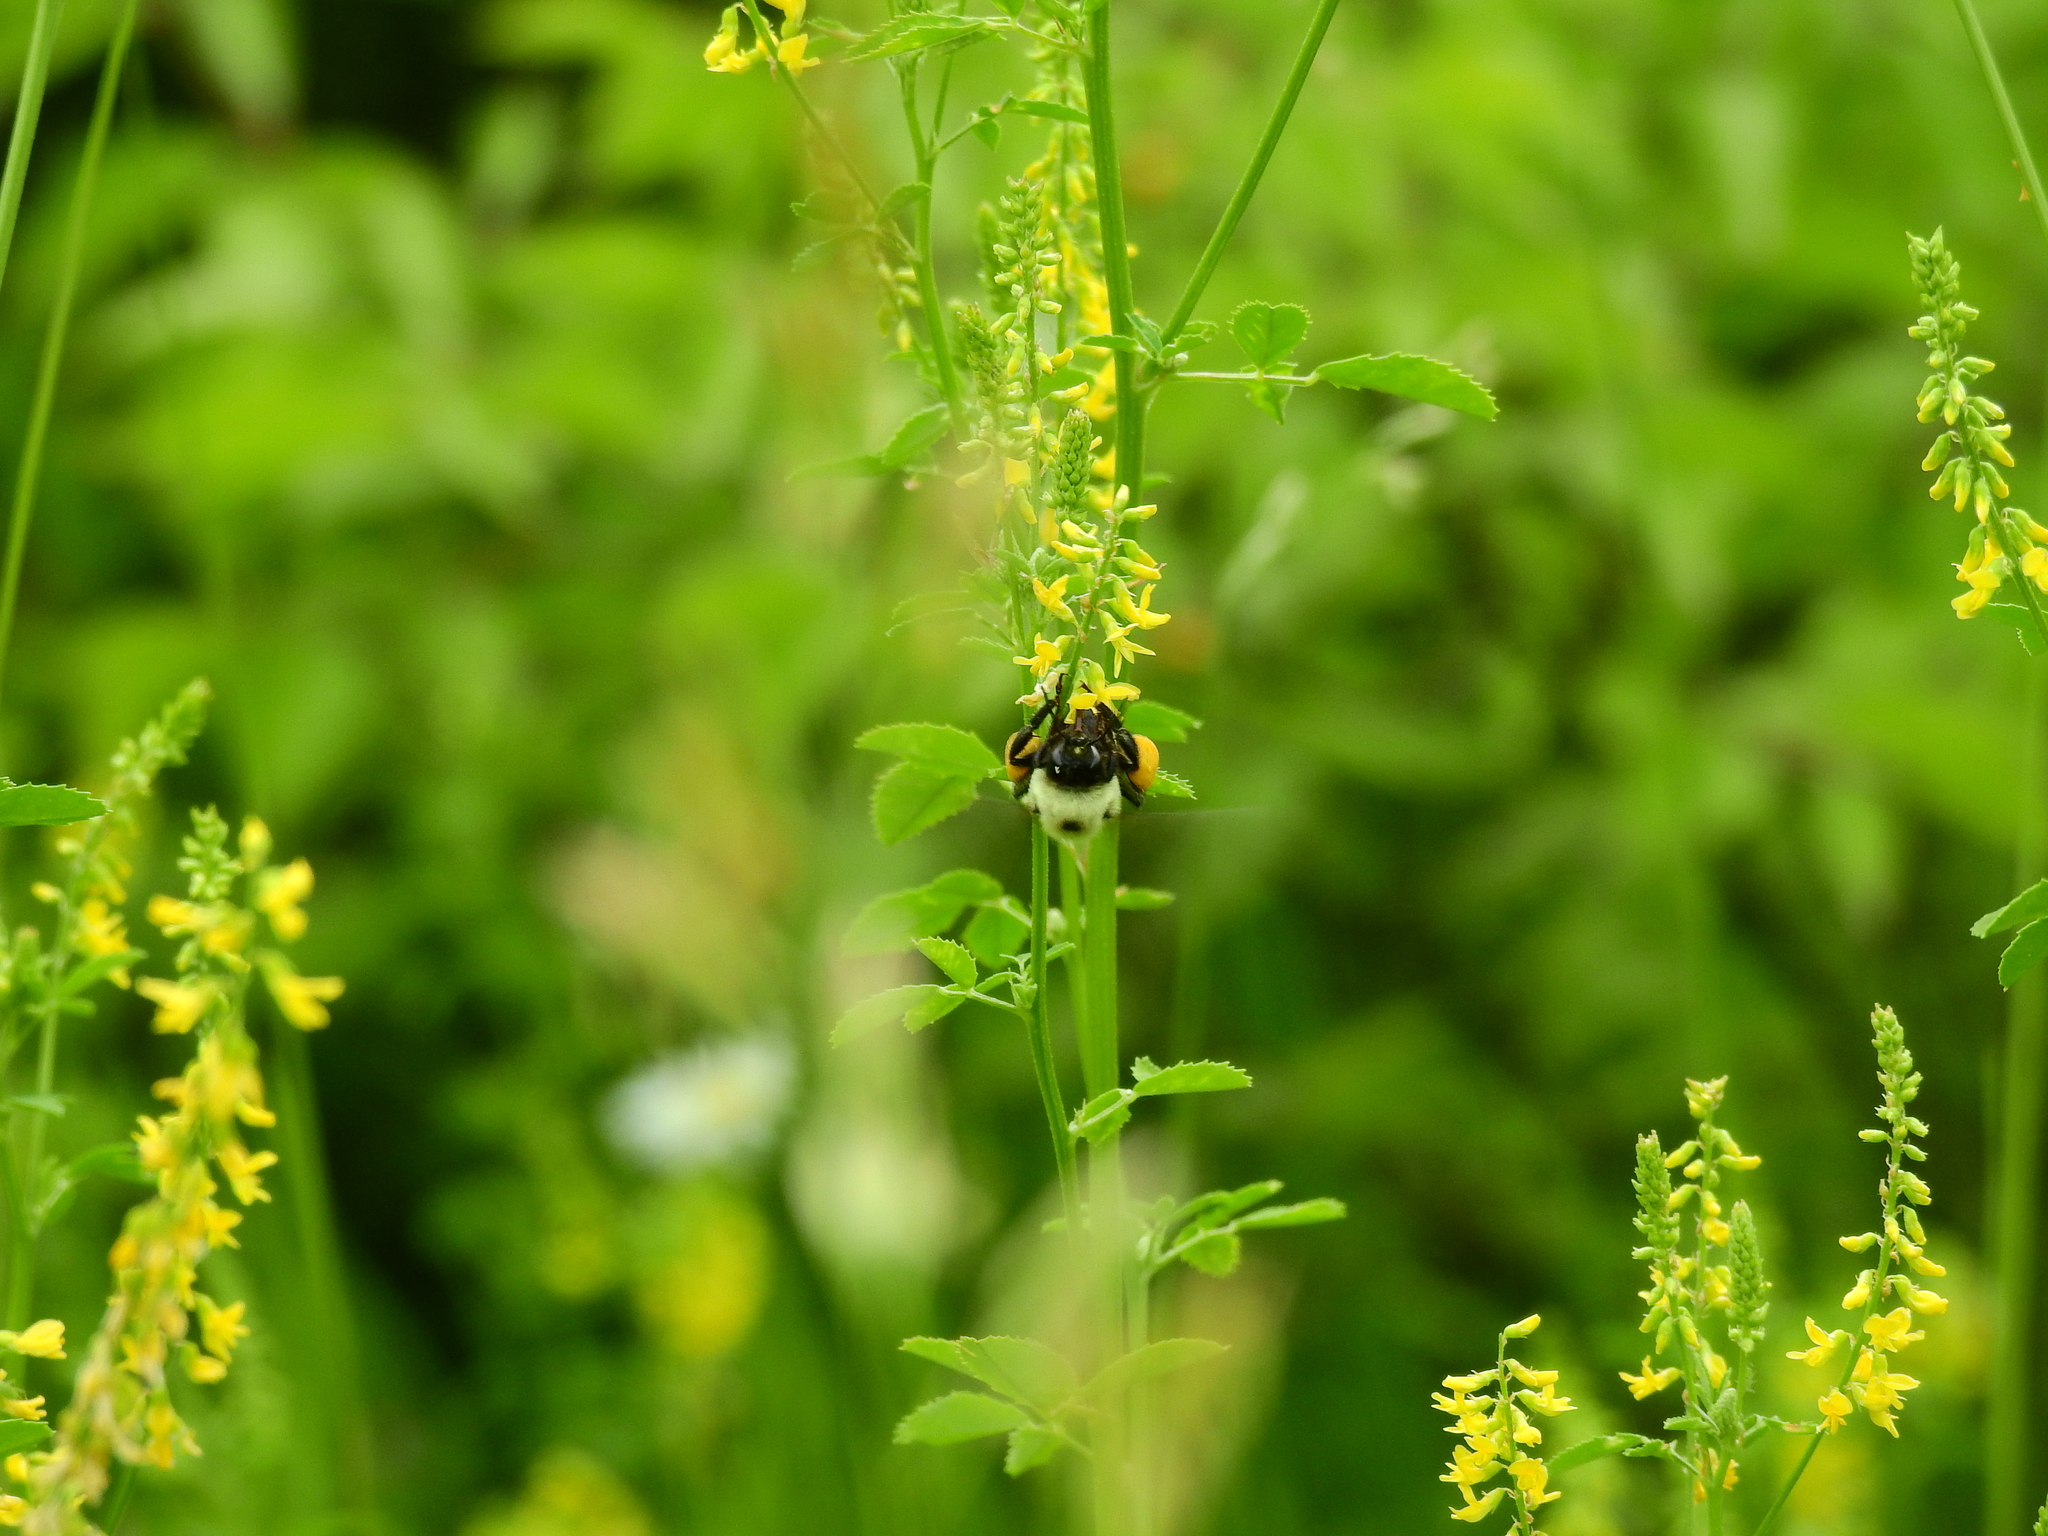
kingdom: Animalia
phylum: Arthropoda
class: Insecta
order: Hymenoptera
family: Apidae
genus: Bombus
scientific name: Bombus griseocollis
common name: Brown-belted bumble bee
